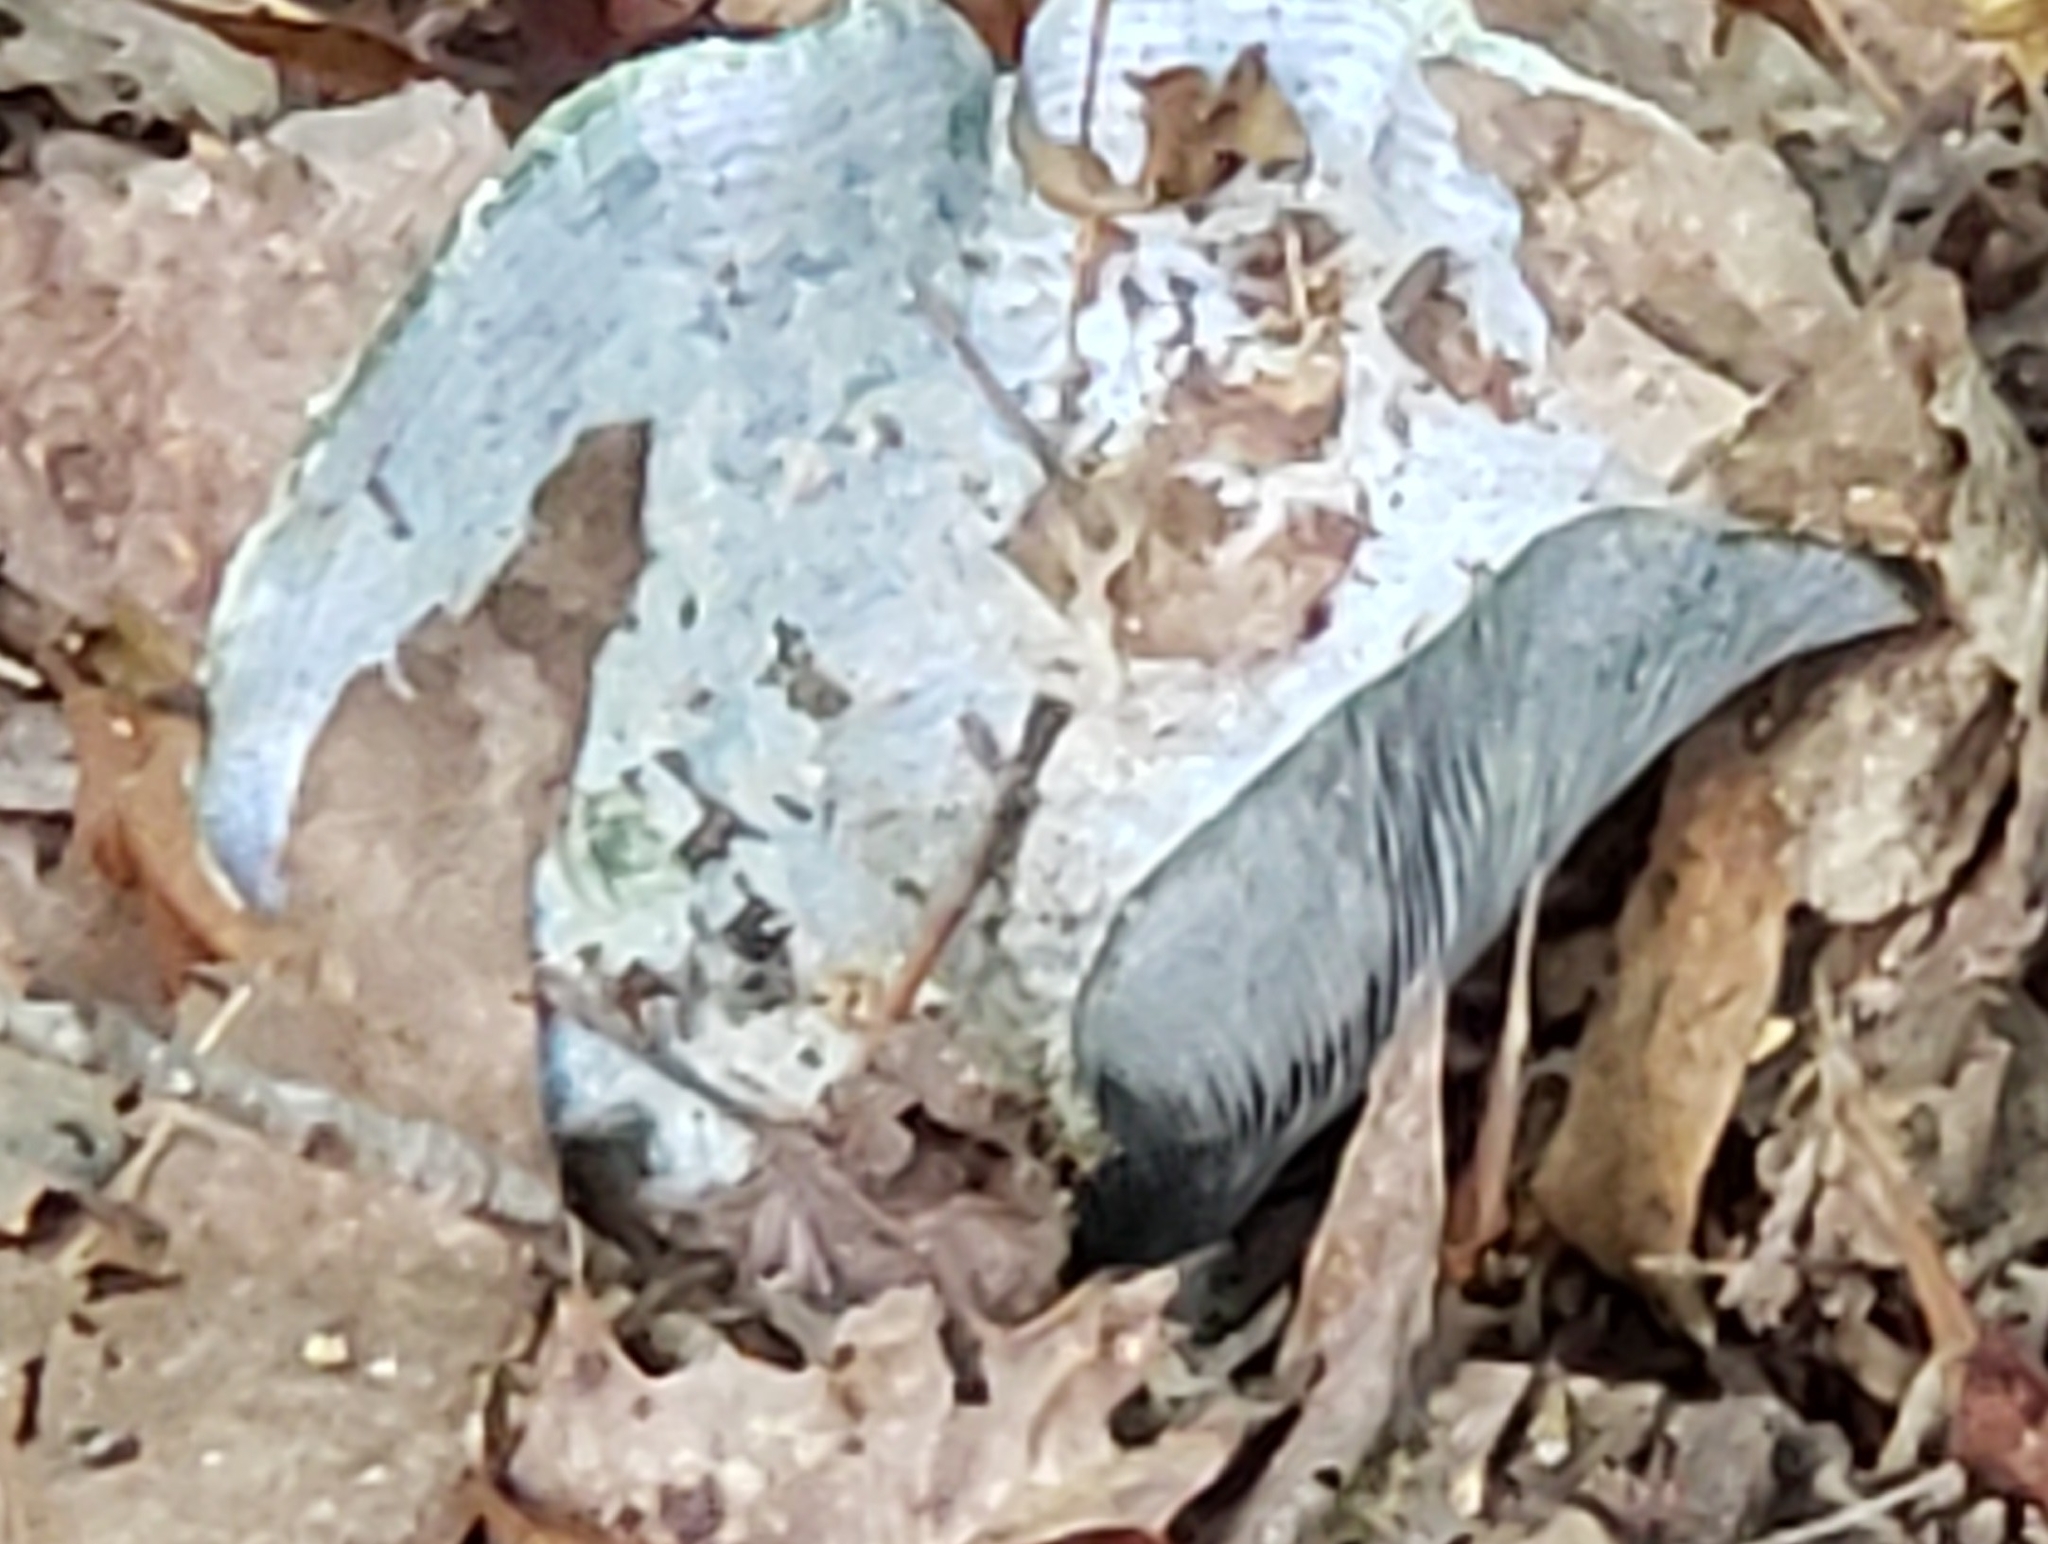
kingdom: Fungi
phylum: Basidiomycota
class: Agaricomycetes
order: Russulales
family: Russulaceae
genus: Lactarius
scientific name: Lactarius indigo
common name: Indigo milk cap
